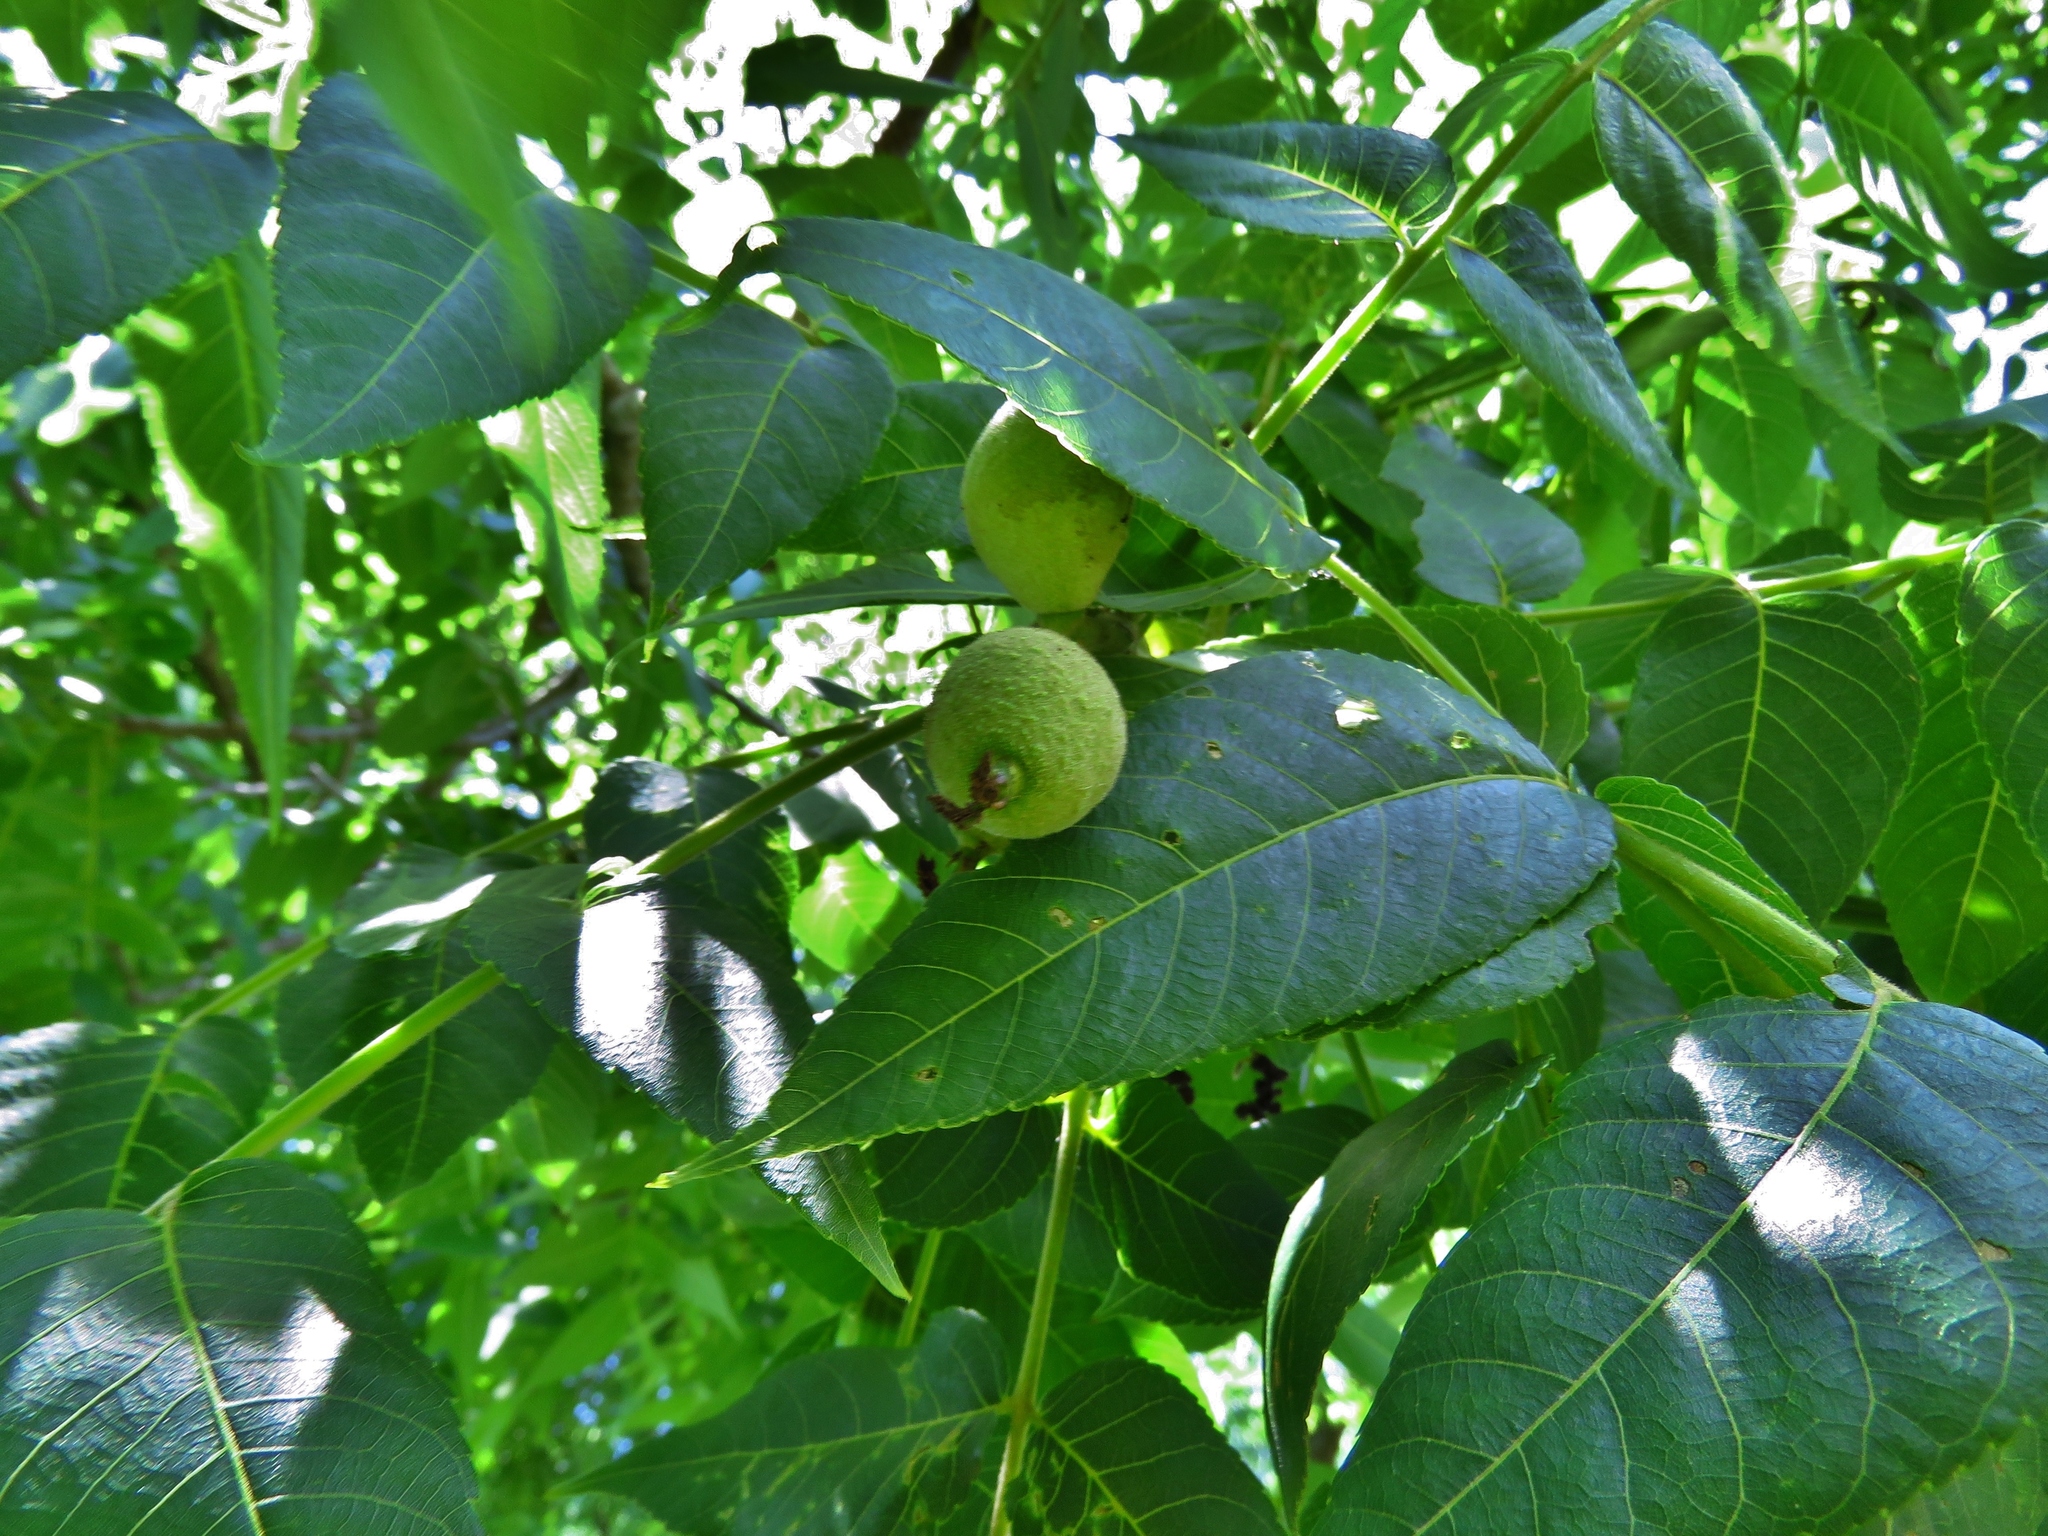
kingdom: Plantae
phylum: Tracheophyta
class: Magnoliopsida
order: Fagales
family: Juglandaceae
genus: Juglans
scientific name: Juglans nigra
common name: Black walnut
